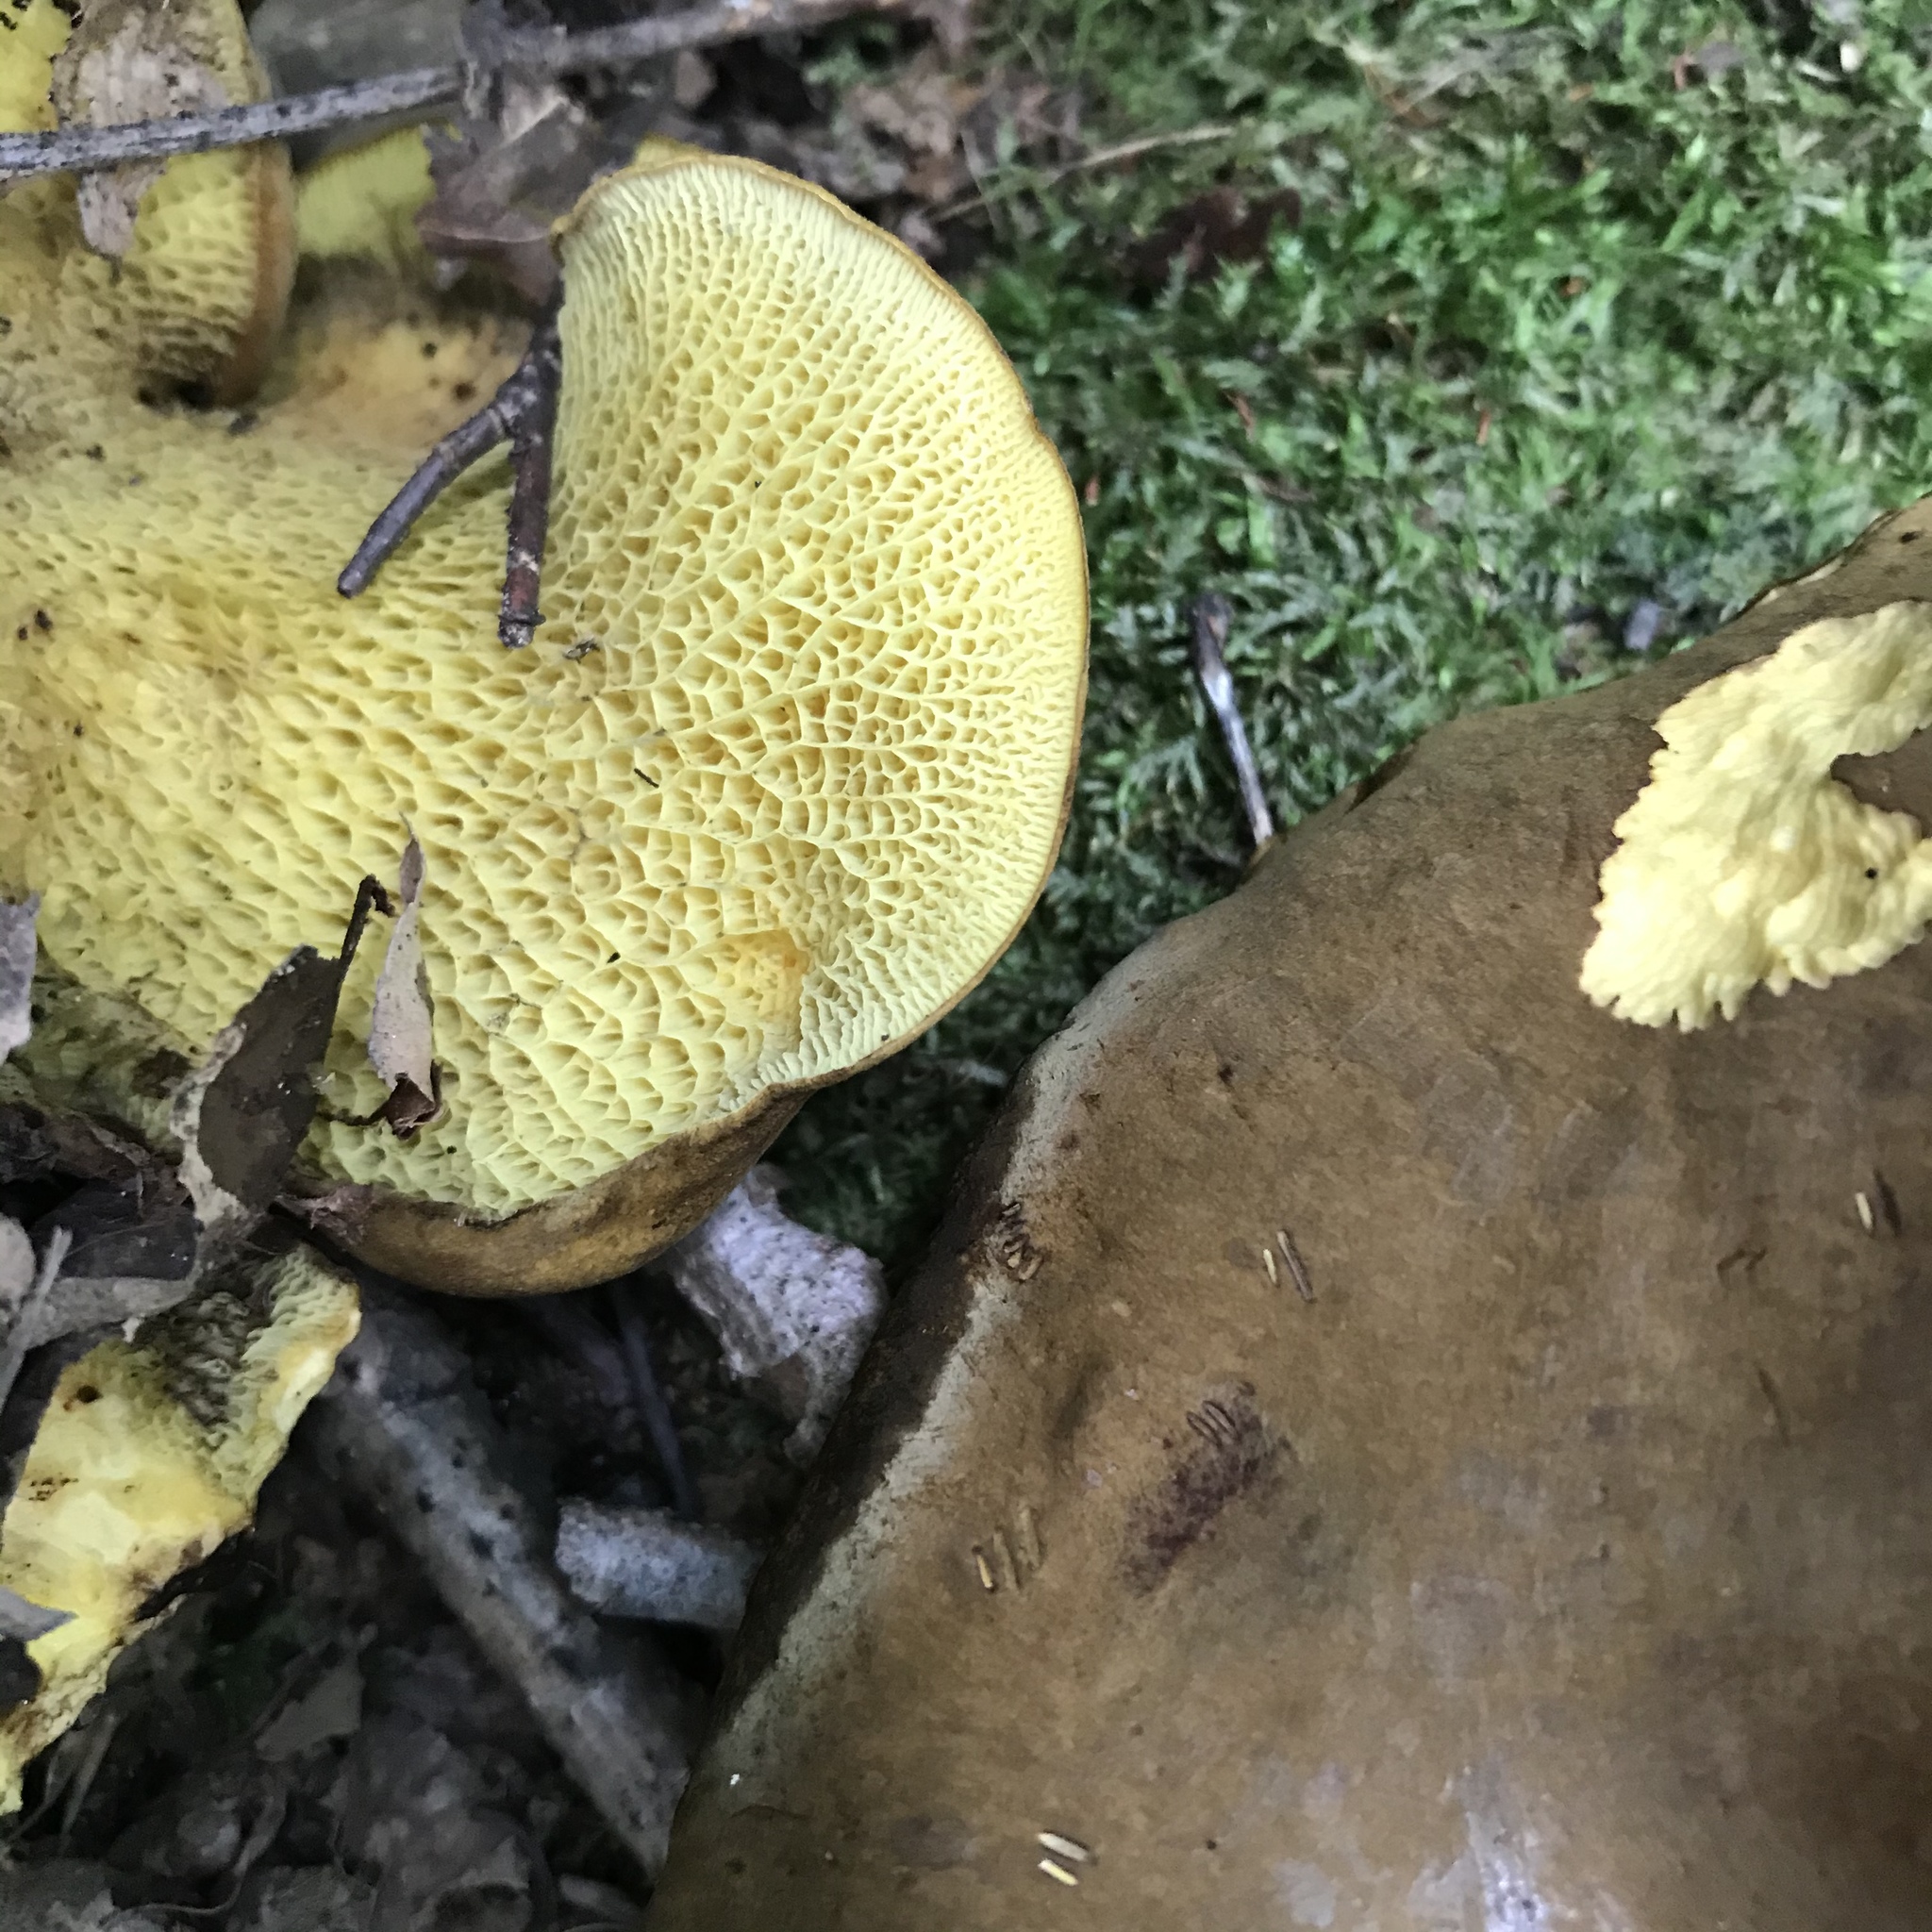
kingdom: Fungi
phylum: Basidiomycota
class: Agaricomycetes
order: Boletales
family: Boletinellaceae
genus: Boletinellus
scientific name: Boletinellus merulioides
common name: Ash tree bolete
